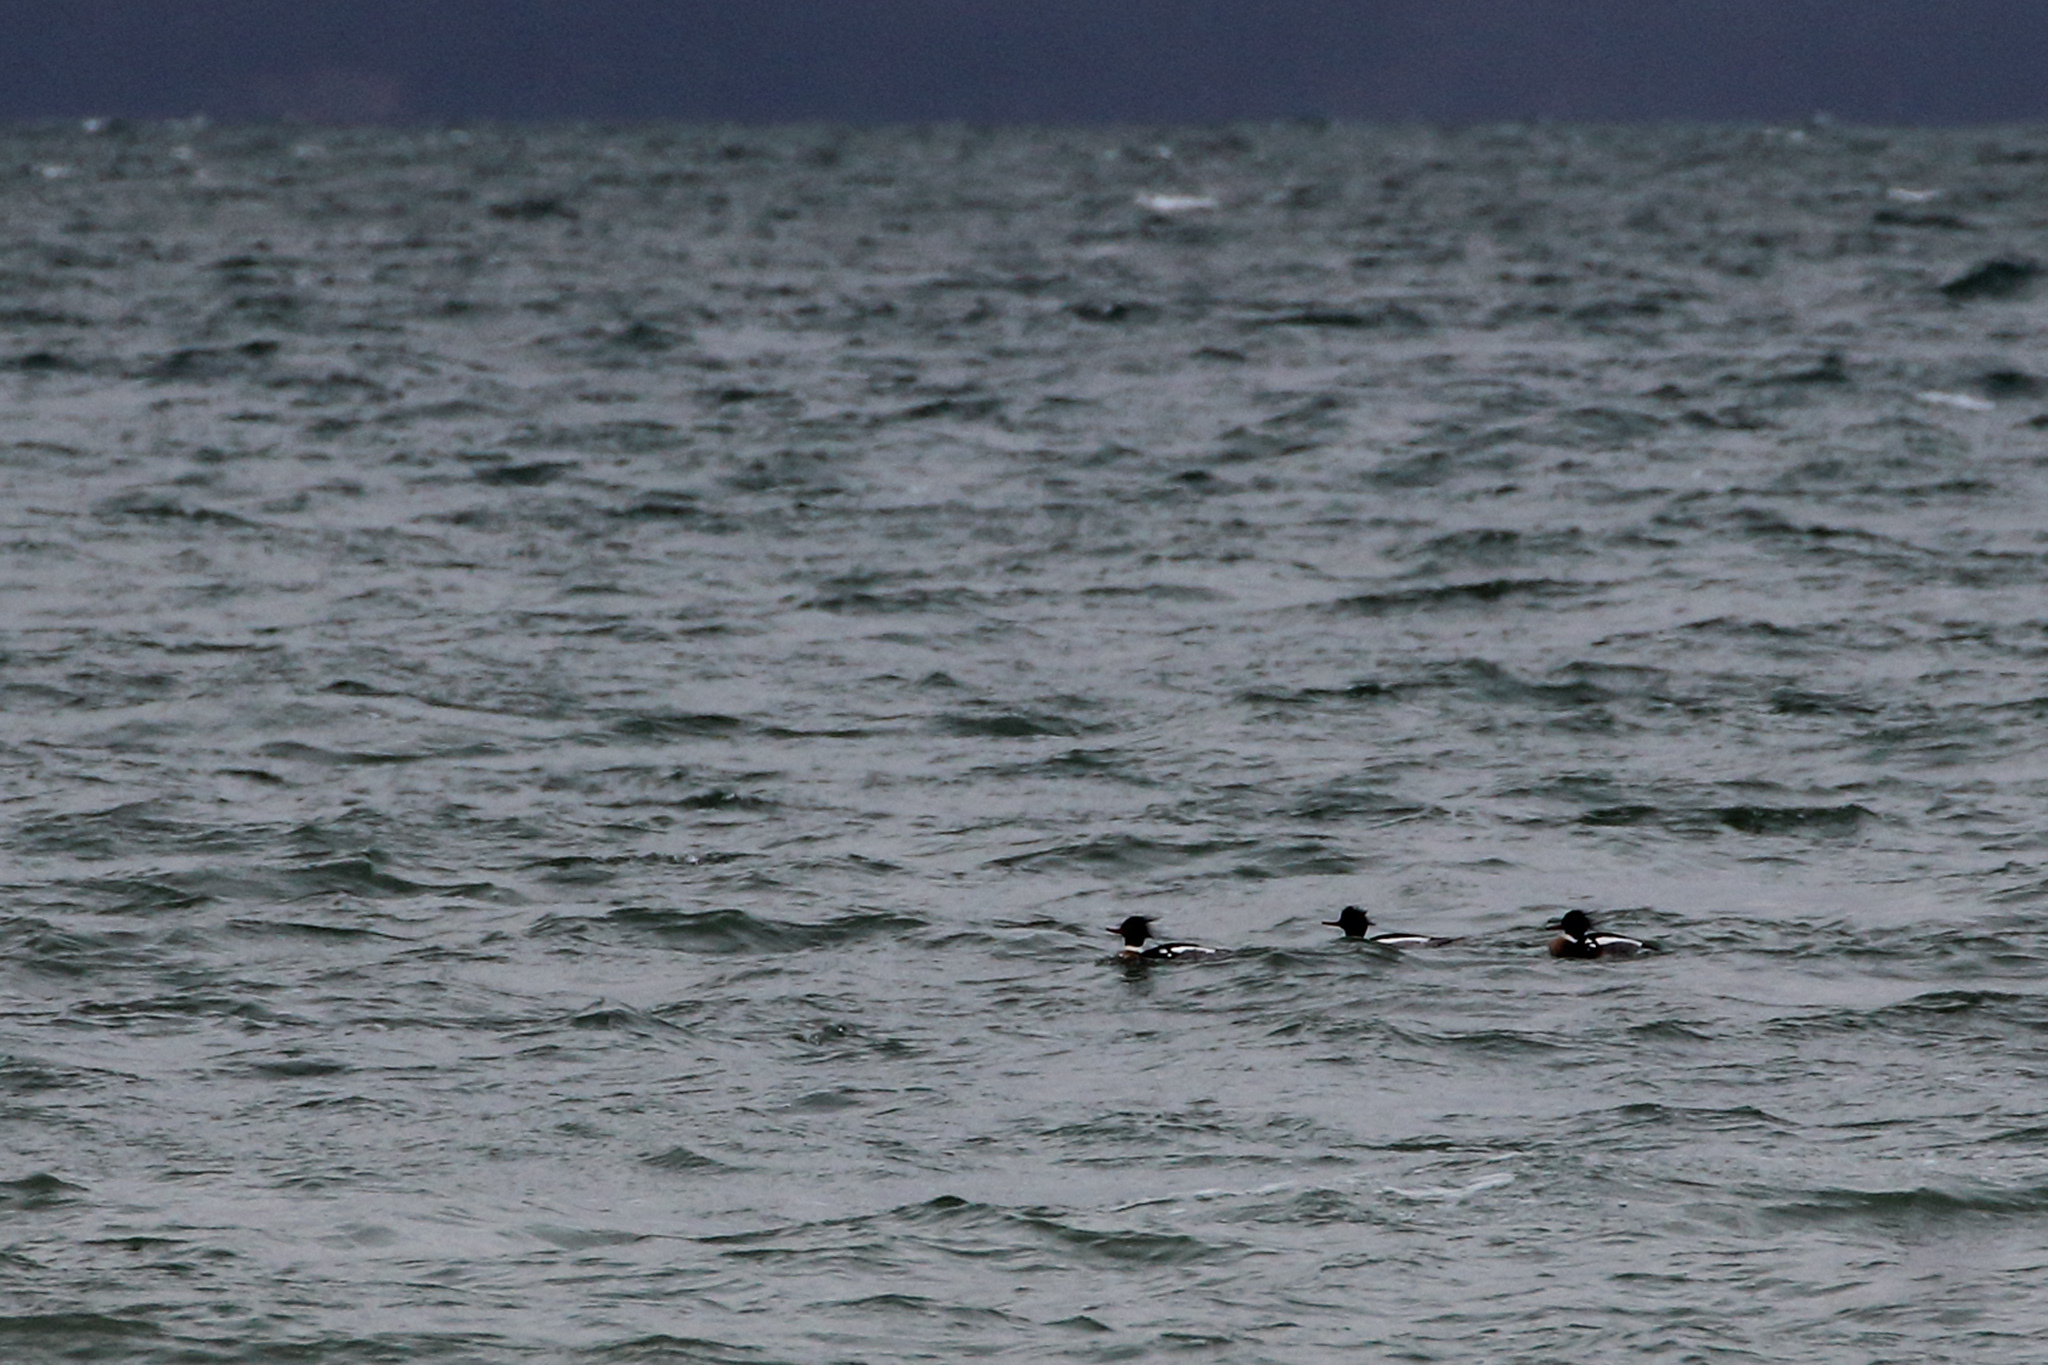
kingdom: Animalia
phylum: Chordata
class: Aves
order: Anseriformes
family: Anatidae
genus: Mergus
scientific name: Mergus serrator
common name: Red-breasted merganser
